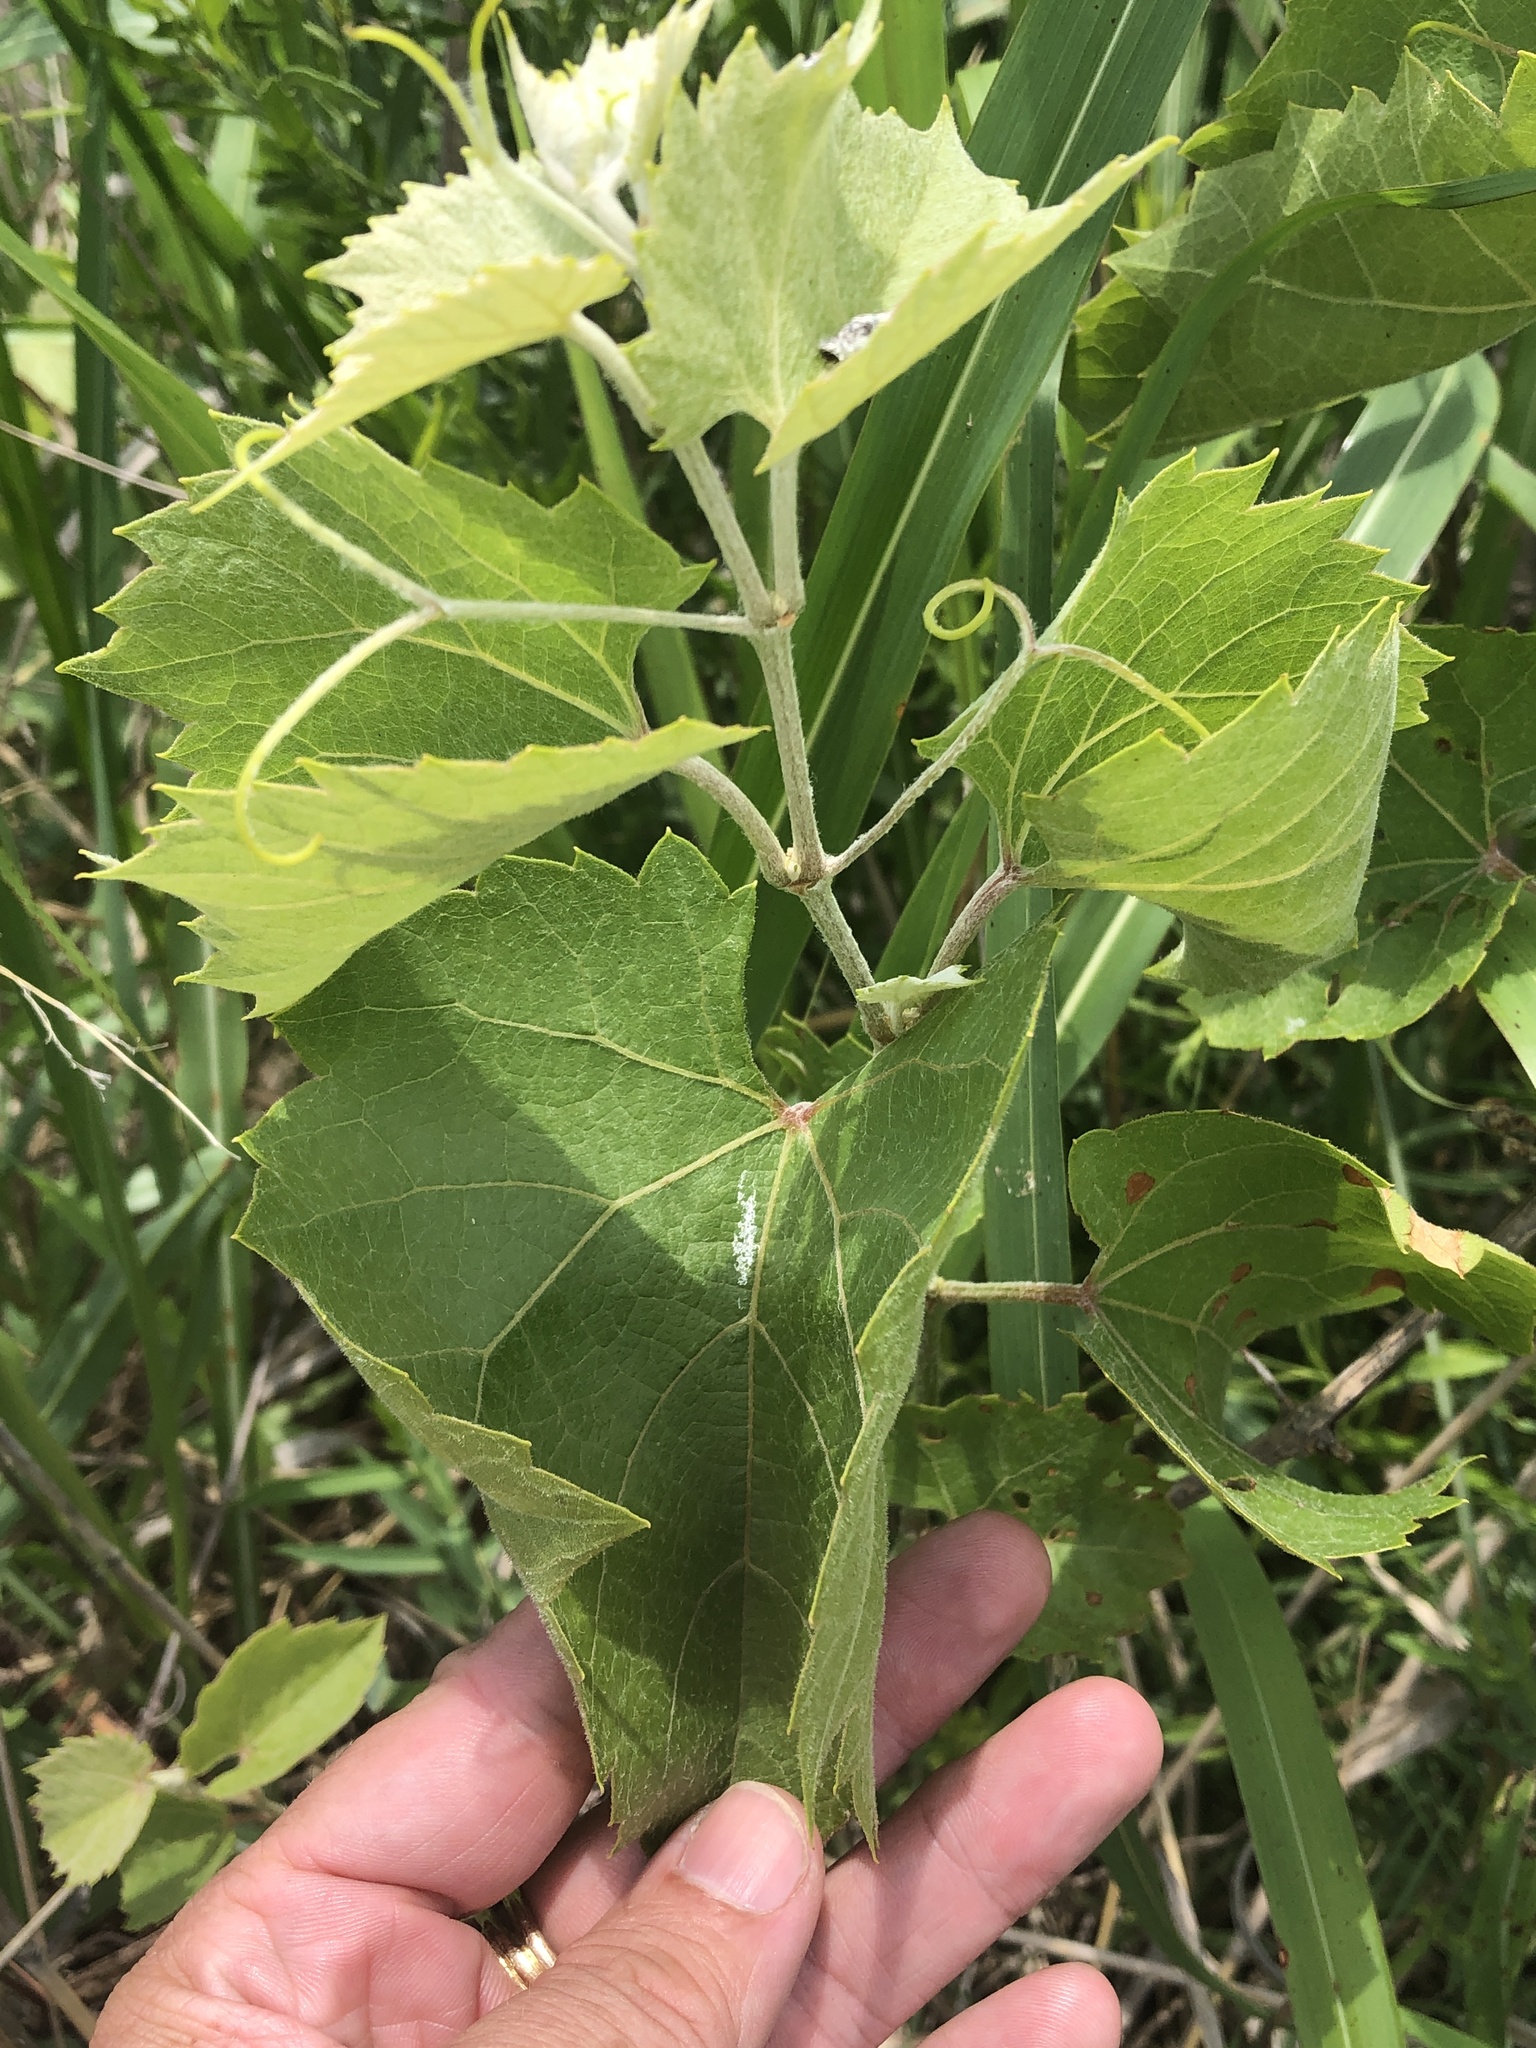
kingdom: Plantae
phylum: Tracheophyta
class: Magnoliopsida
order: Vitales
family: Vitaceae
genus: Vitis
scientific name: Vitis acerifolia
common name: Bush grape
